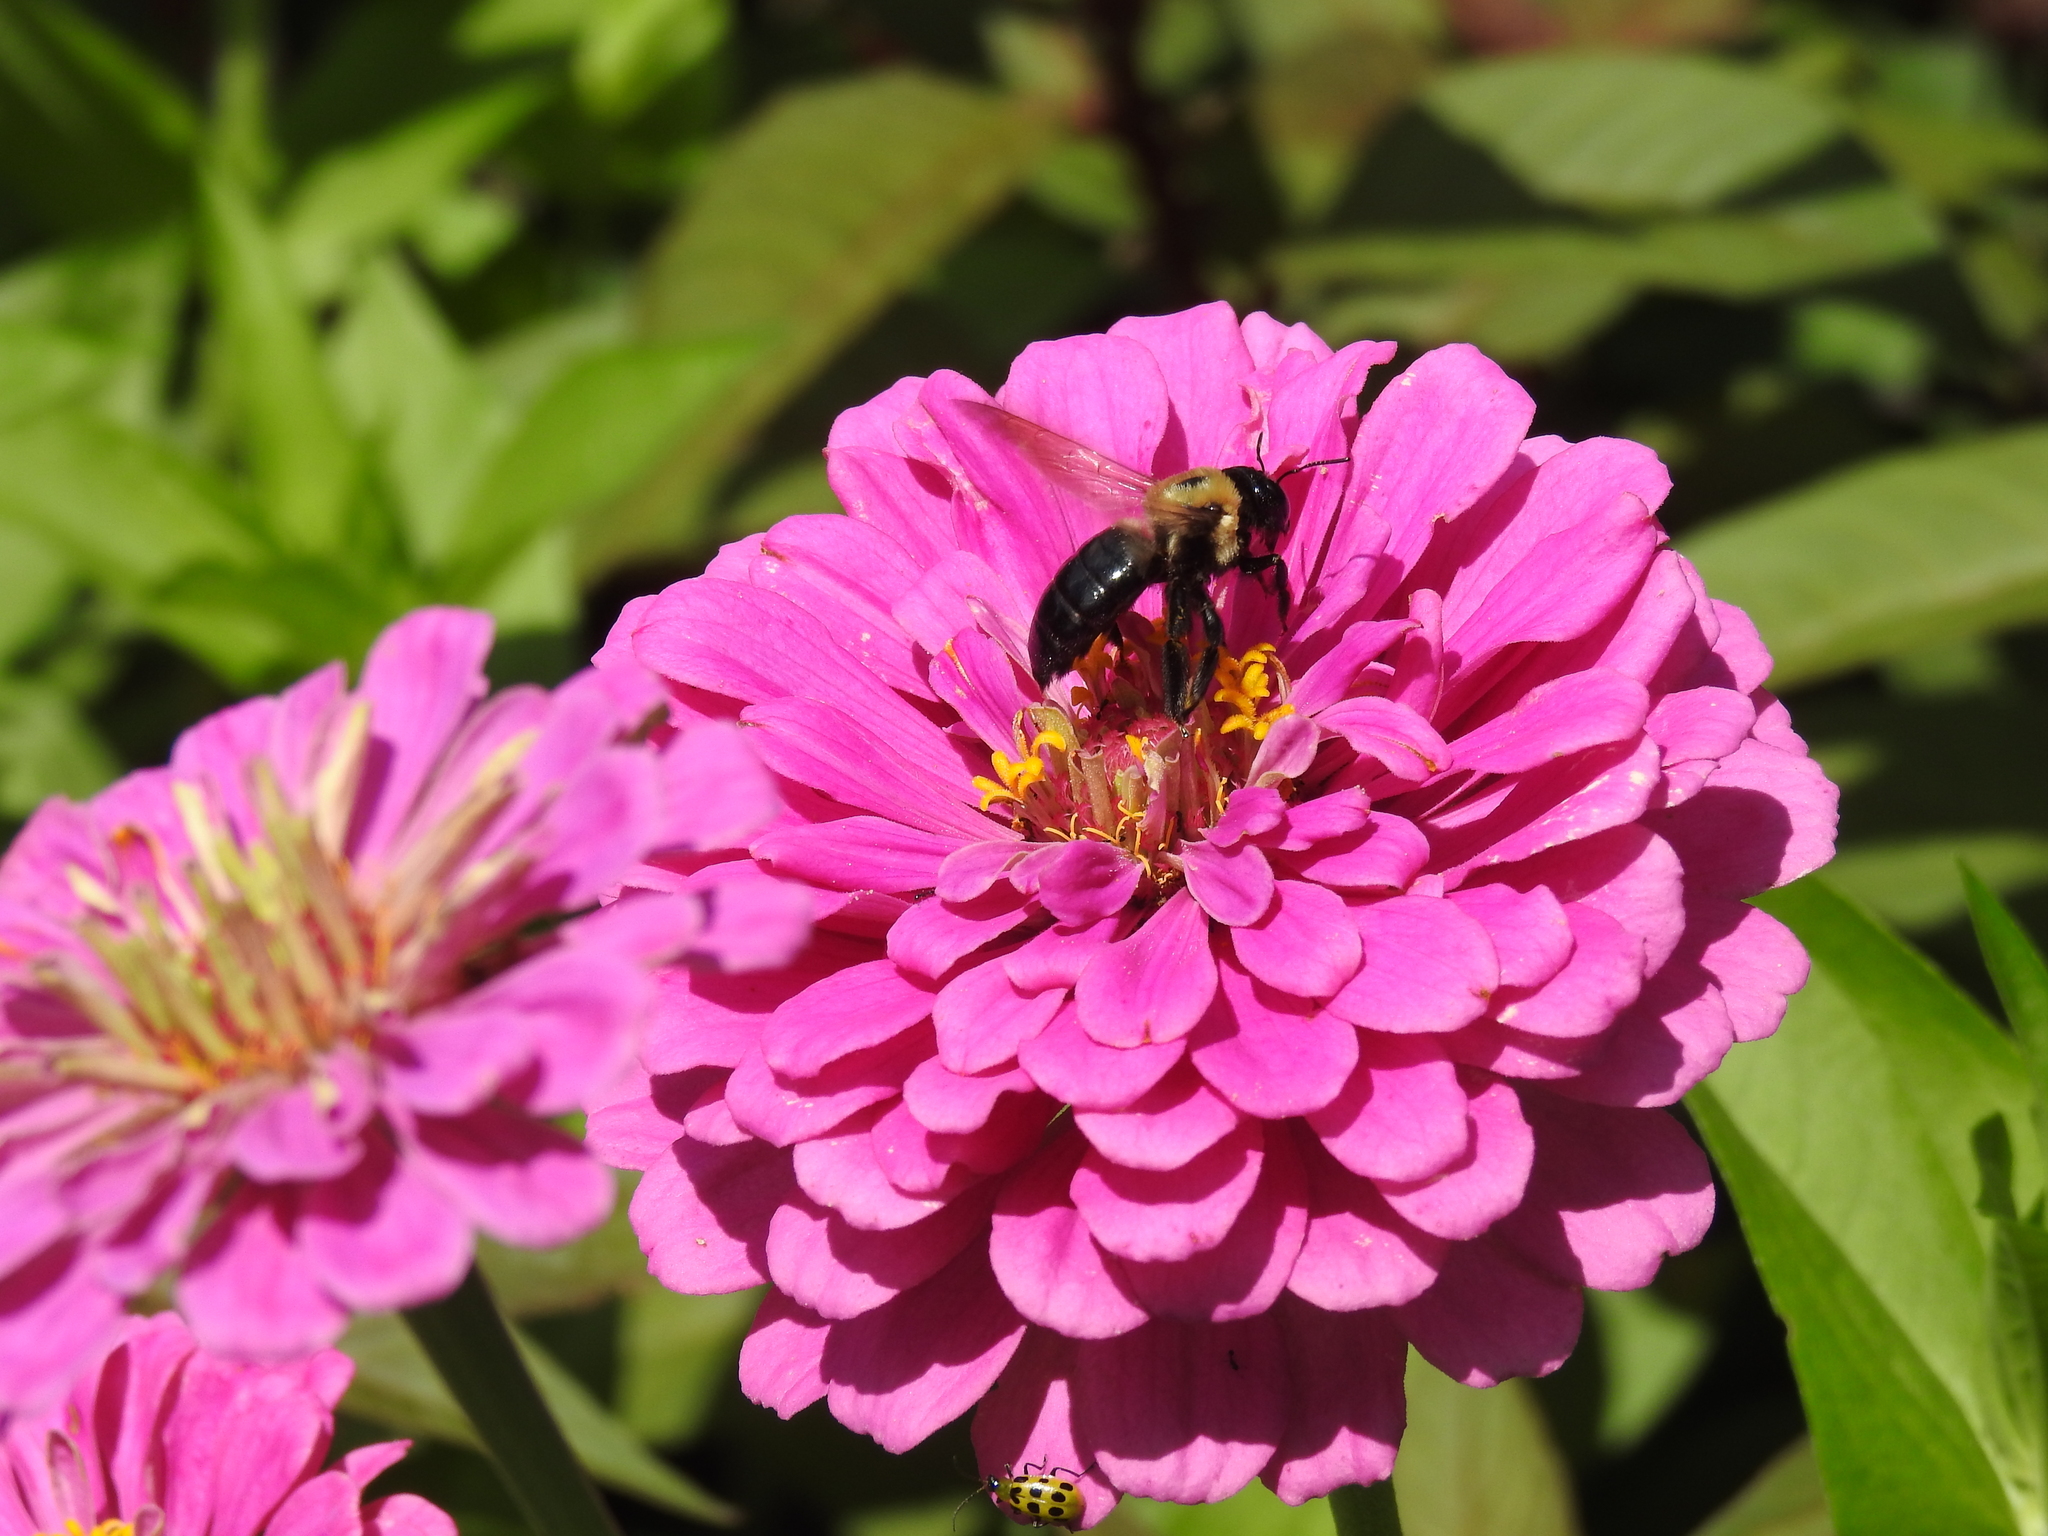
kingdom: Animalia
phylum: Arthropoda
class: Insecta
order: Hymenoptera
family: Apidae
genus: Xylocopa
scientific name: Xylocopa virginica
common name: Carpenter bee
